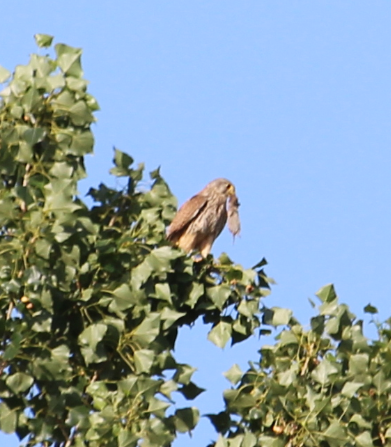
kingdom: Animalia
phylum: Chordata
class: Aves
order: Falconiformes
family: Falconidae
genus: Falco
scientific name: Falco tinnunculus
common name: Common kestrel
